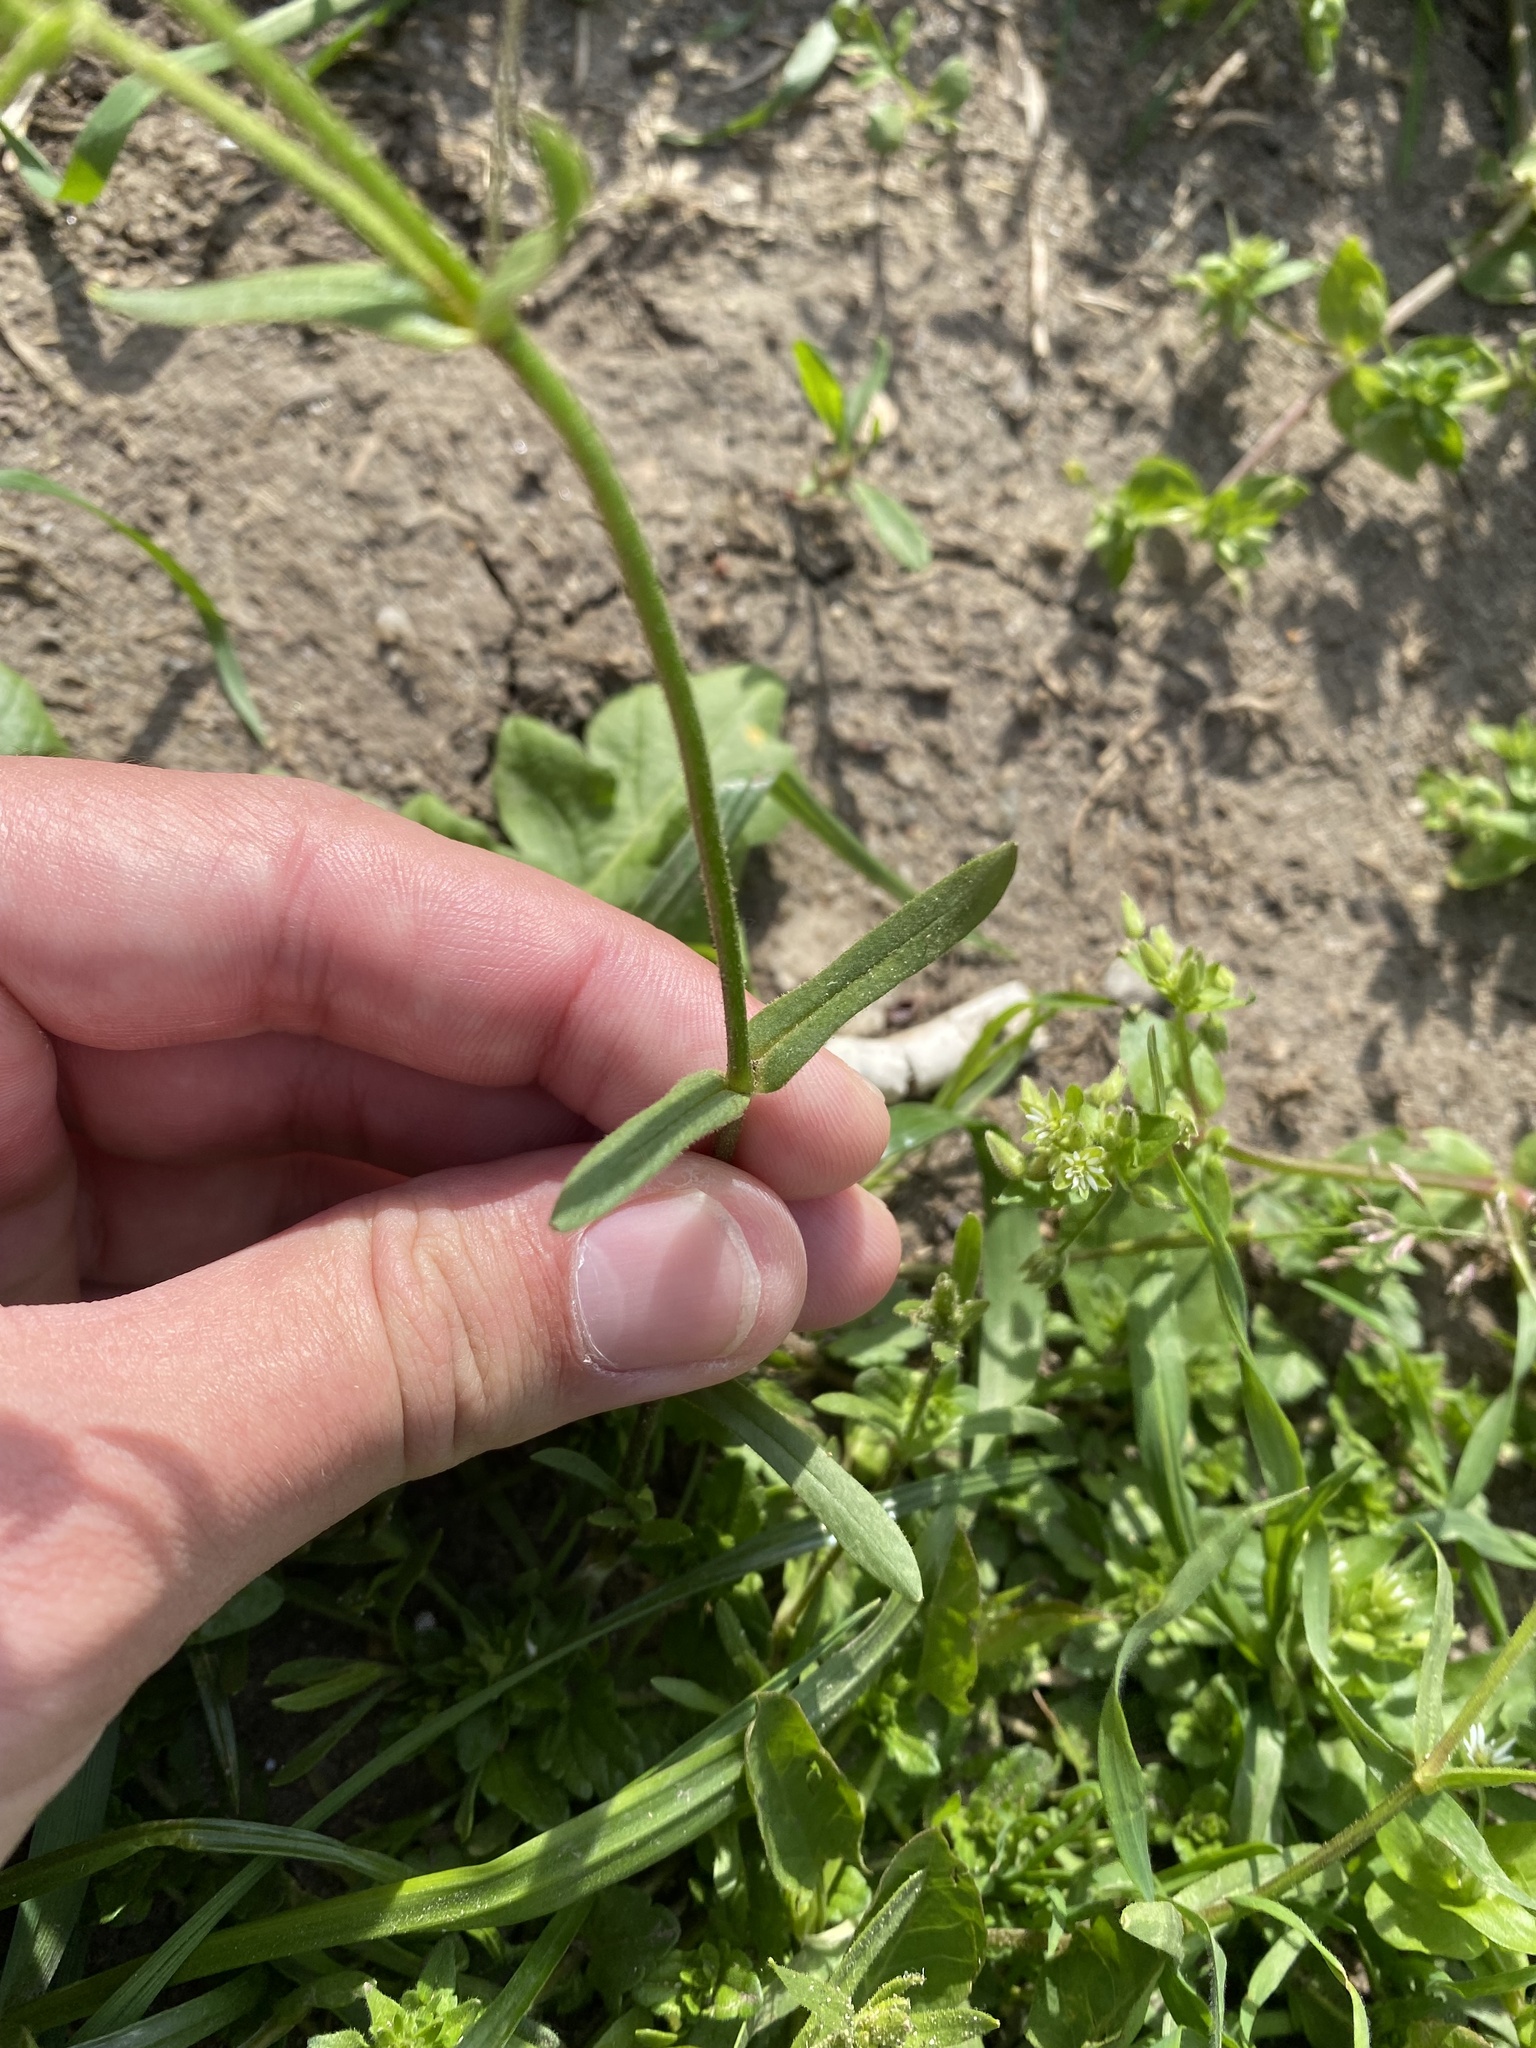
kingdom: Plantae
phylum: Tracheophyta
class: Magnoliopsida
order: Caryophyllales
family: Caryophyllaceae
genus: Dichodon
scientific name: Dichodon viscidum
